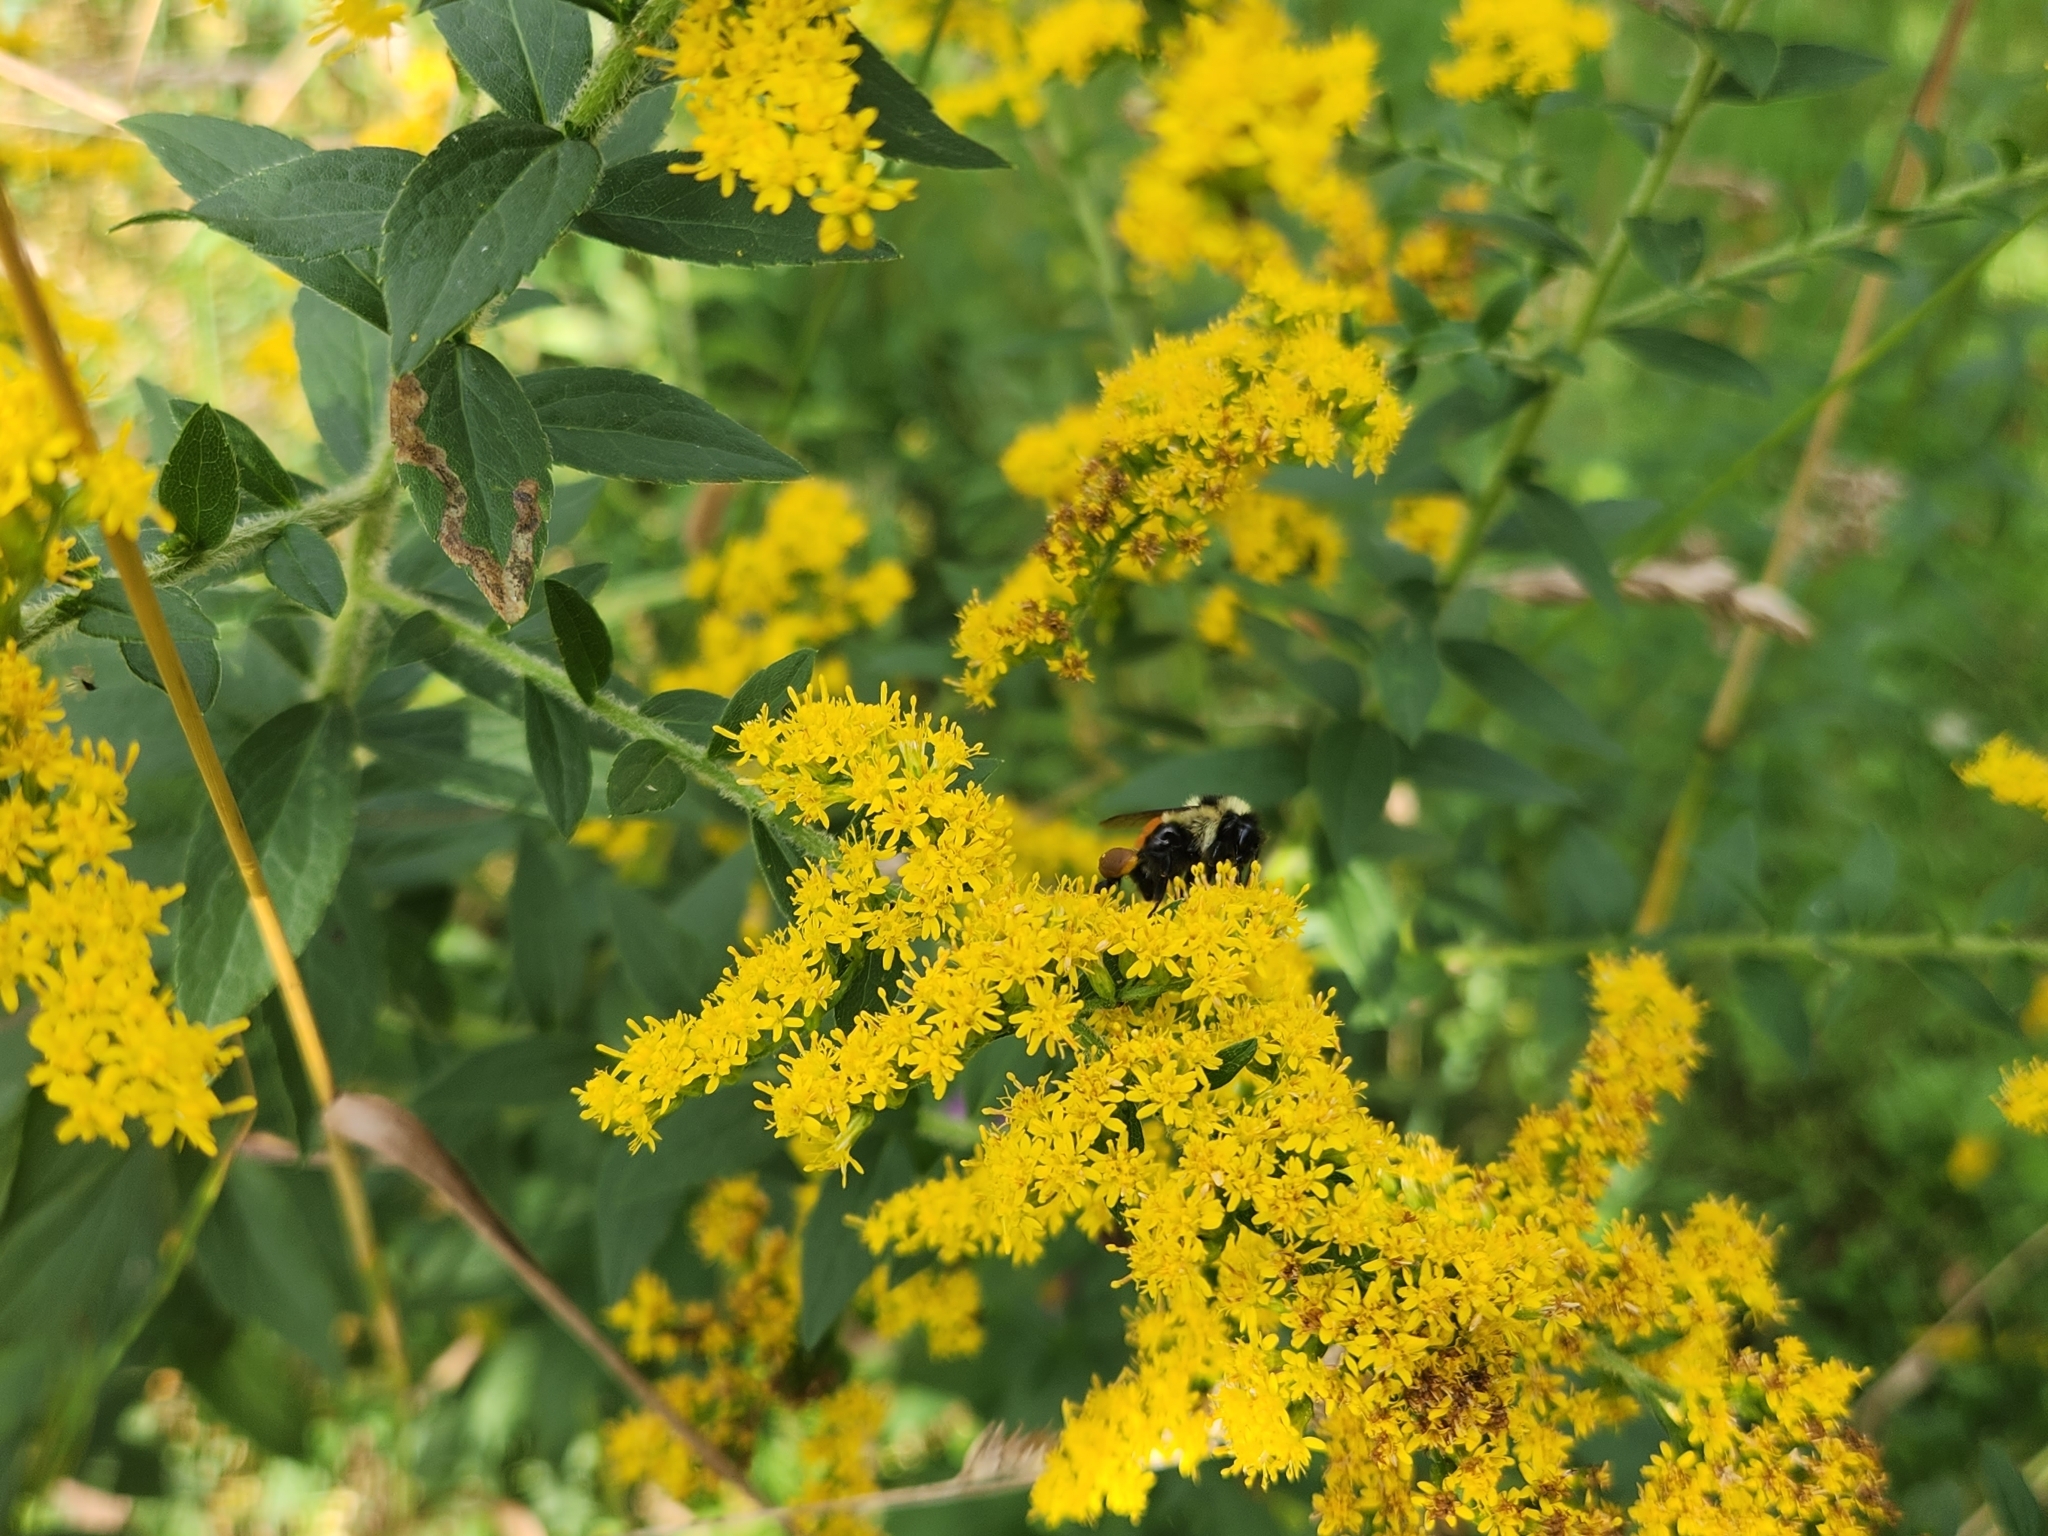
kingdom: Animalia
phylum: Arthropoda
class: Insecta
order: Hymenoptera
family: Apidae
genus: Bombus
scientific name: Bombus ternarius
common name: Tri-colored bumble bee
